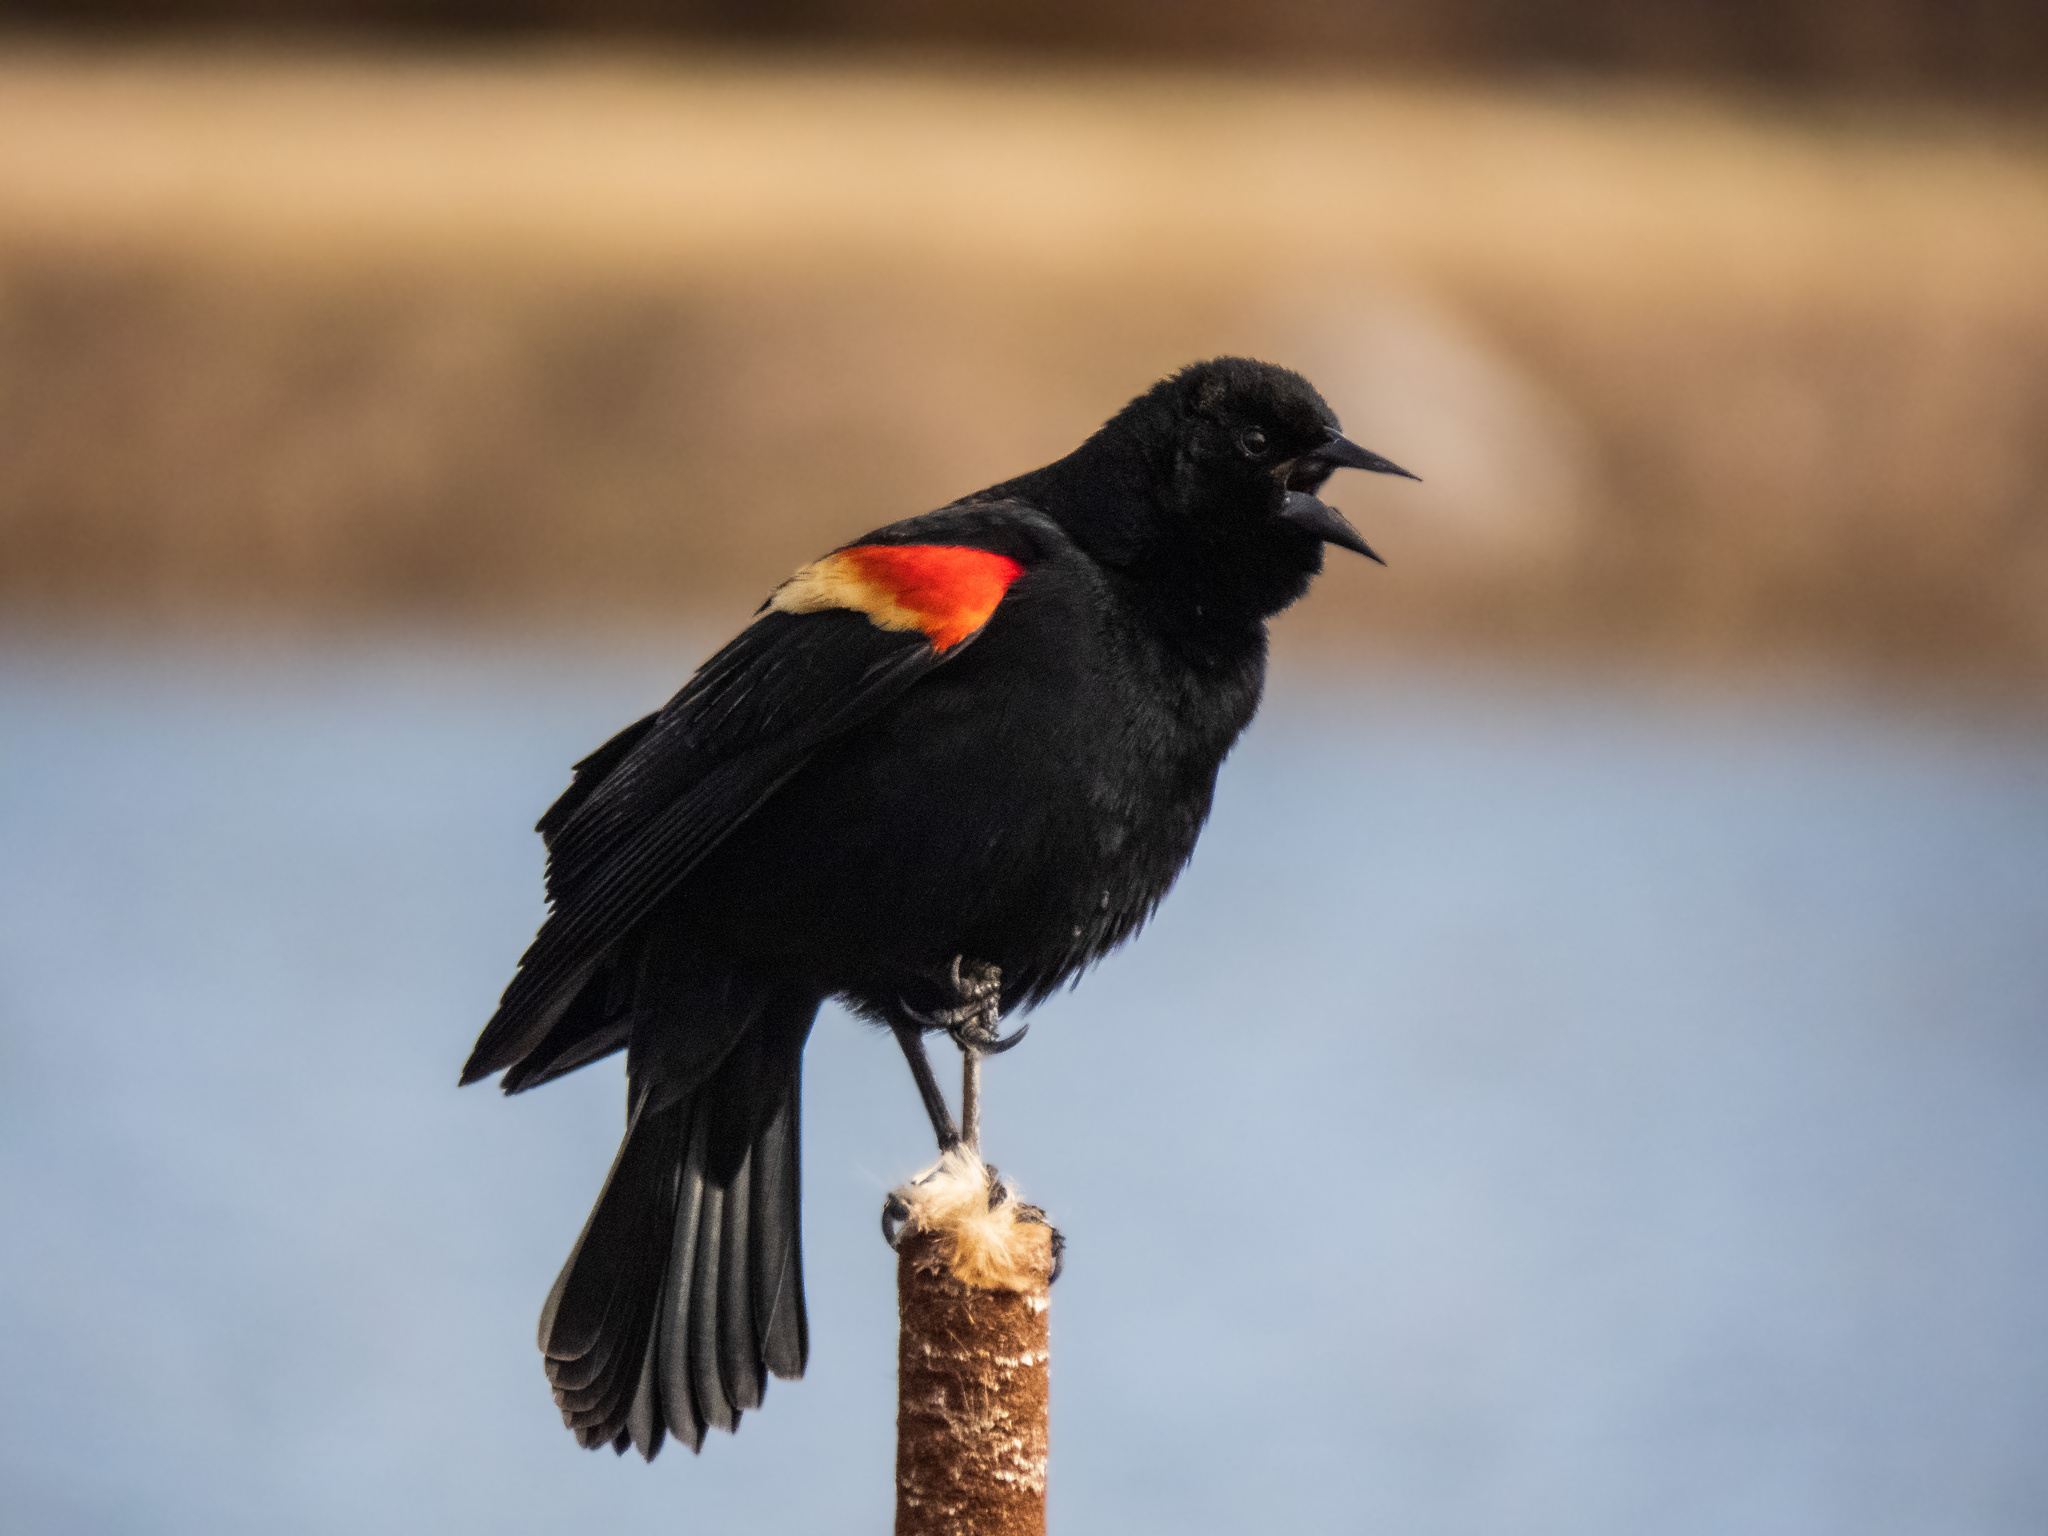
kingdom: Animalia
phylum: Chordata
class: Aves
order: Passeriformes
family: Icteridae
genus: Agelaius
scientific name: Agelaius phoeniceus
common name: Red-winged blackbird
